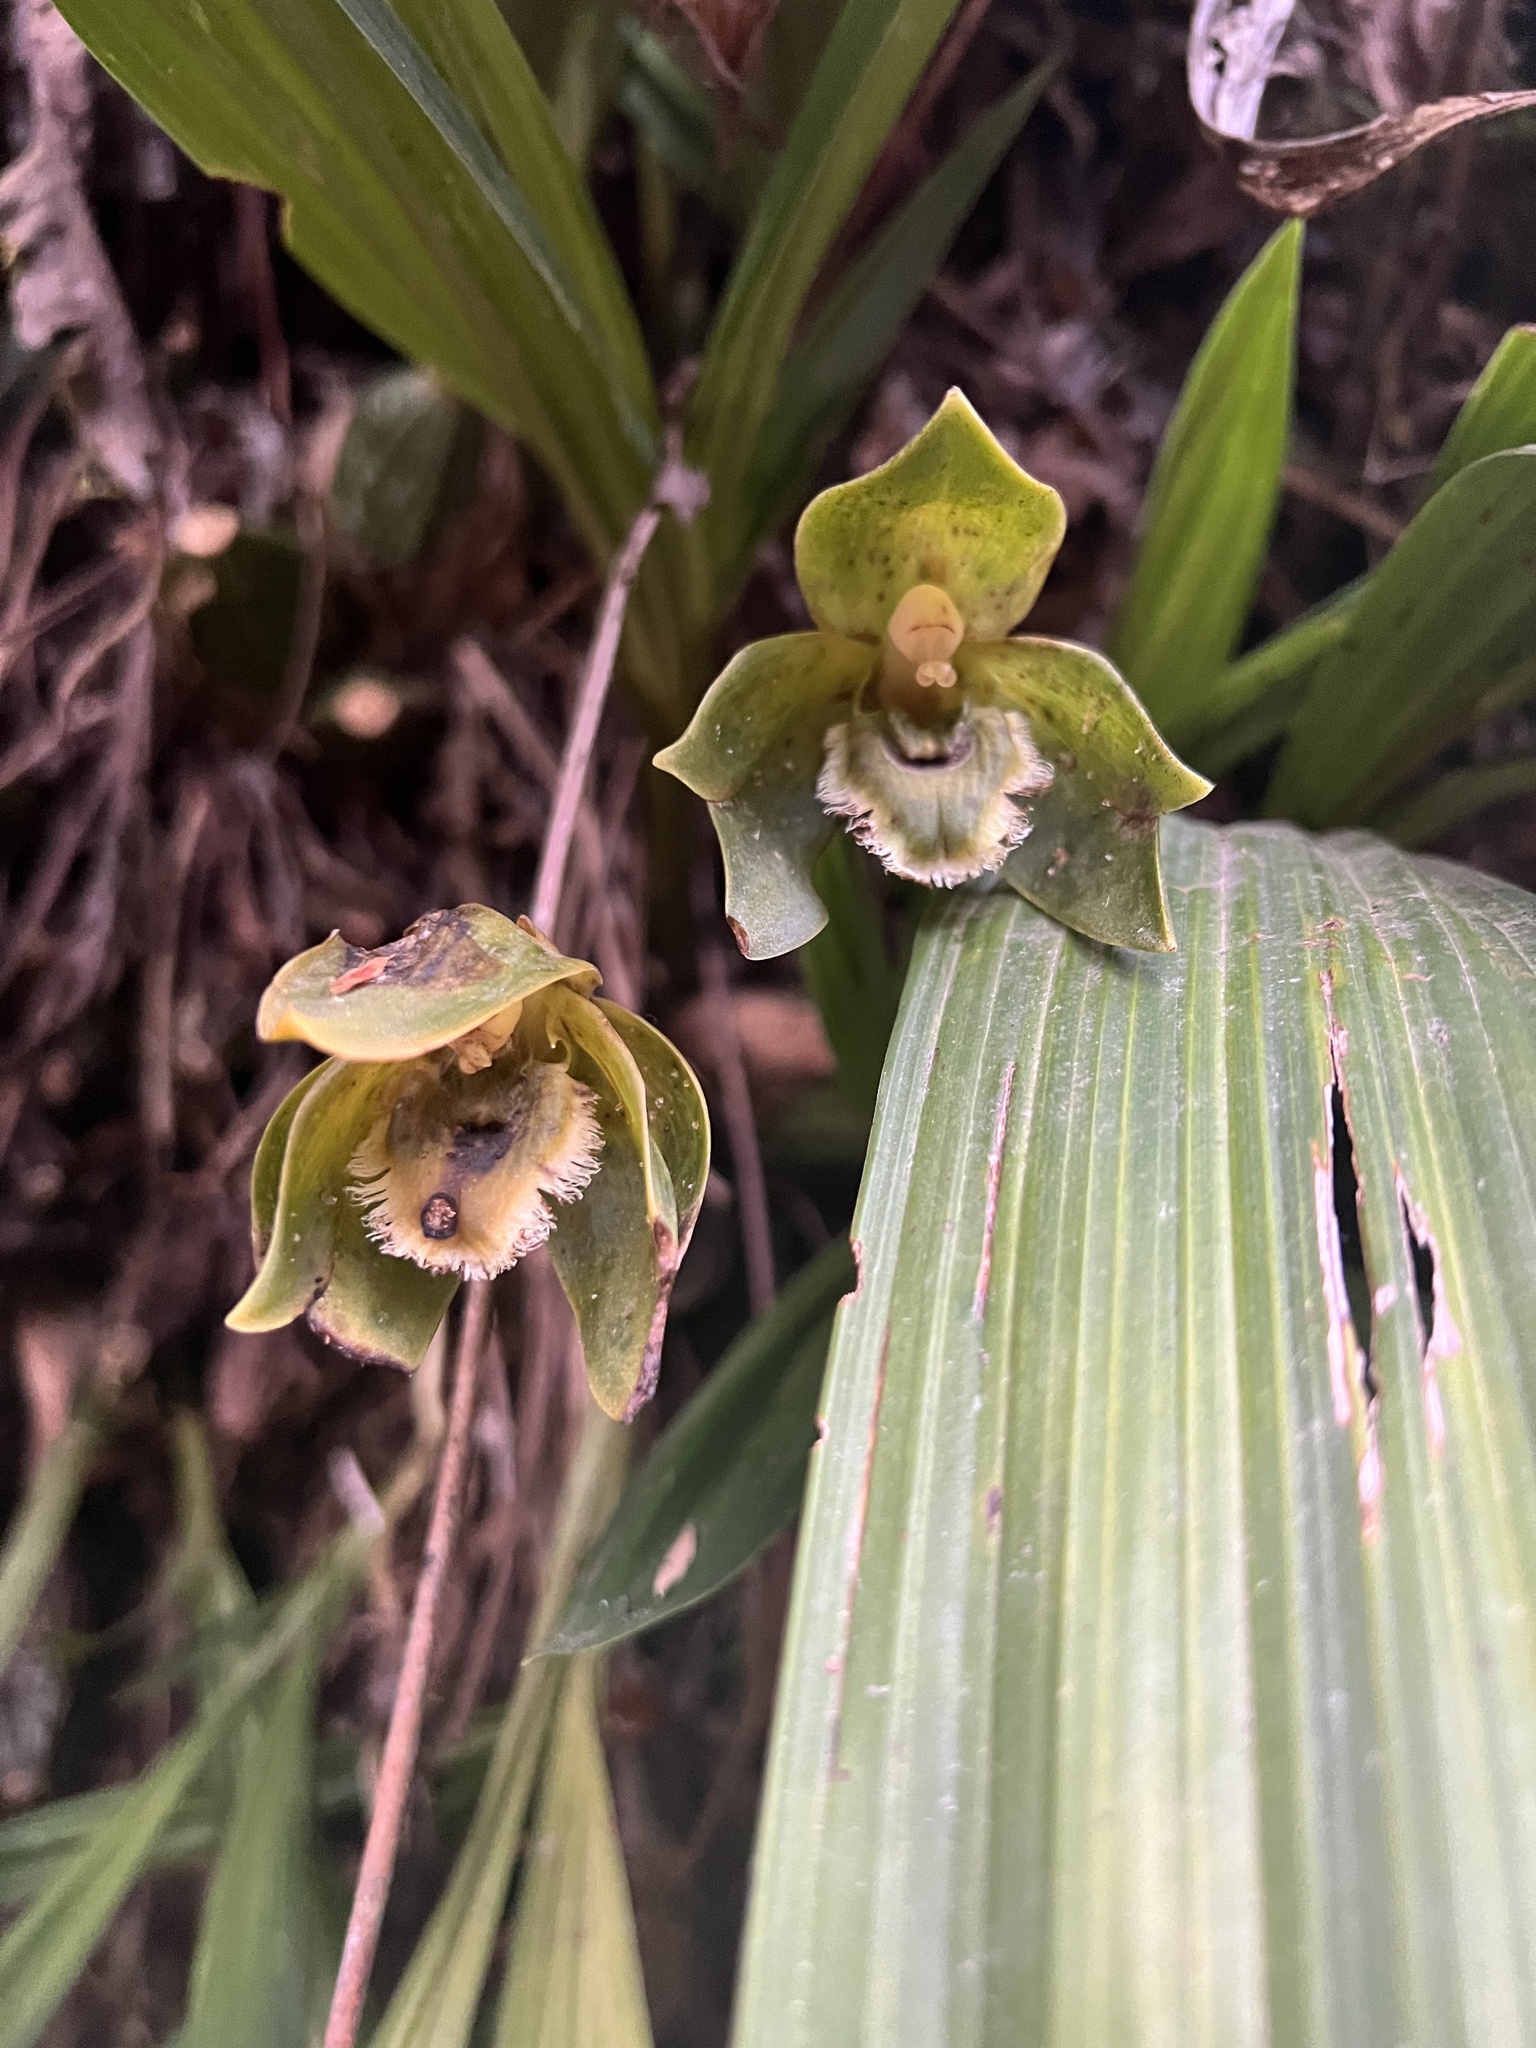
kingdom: Plantae
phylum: Tracheophyta
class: Liliopsida
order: Asparagales
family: Orchidaceae
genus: Ida
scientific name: Ida locusta
